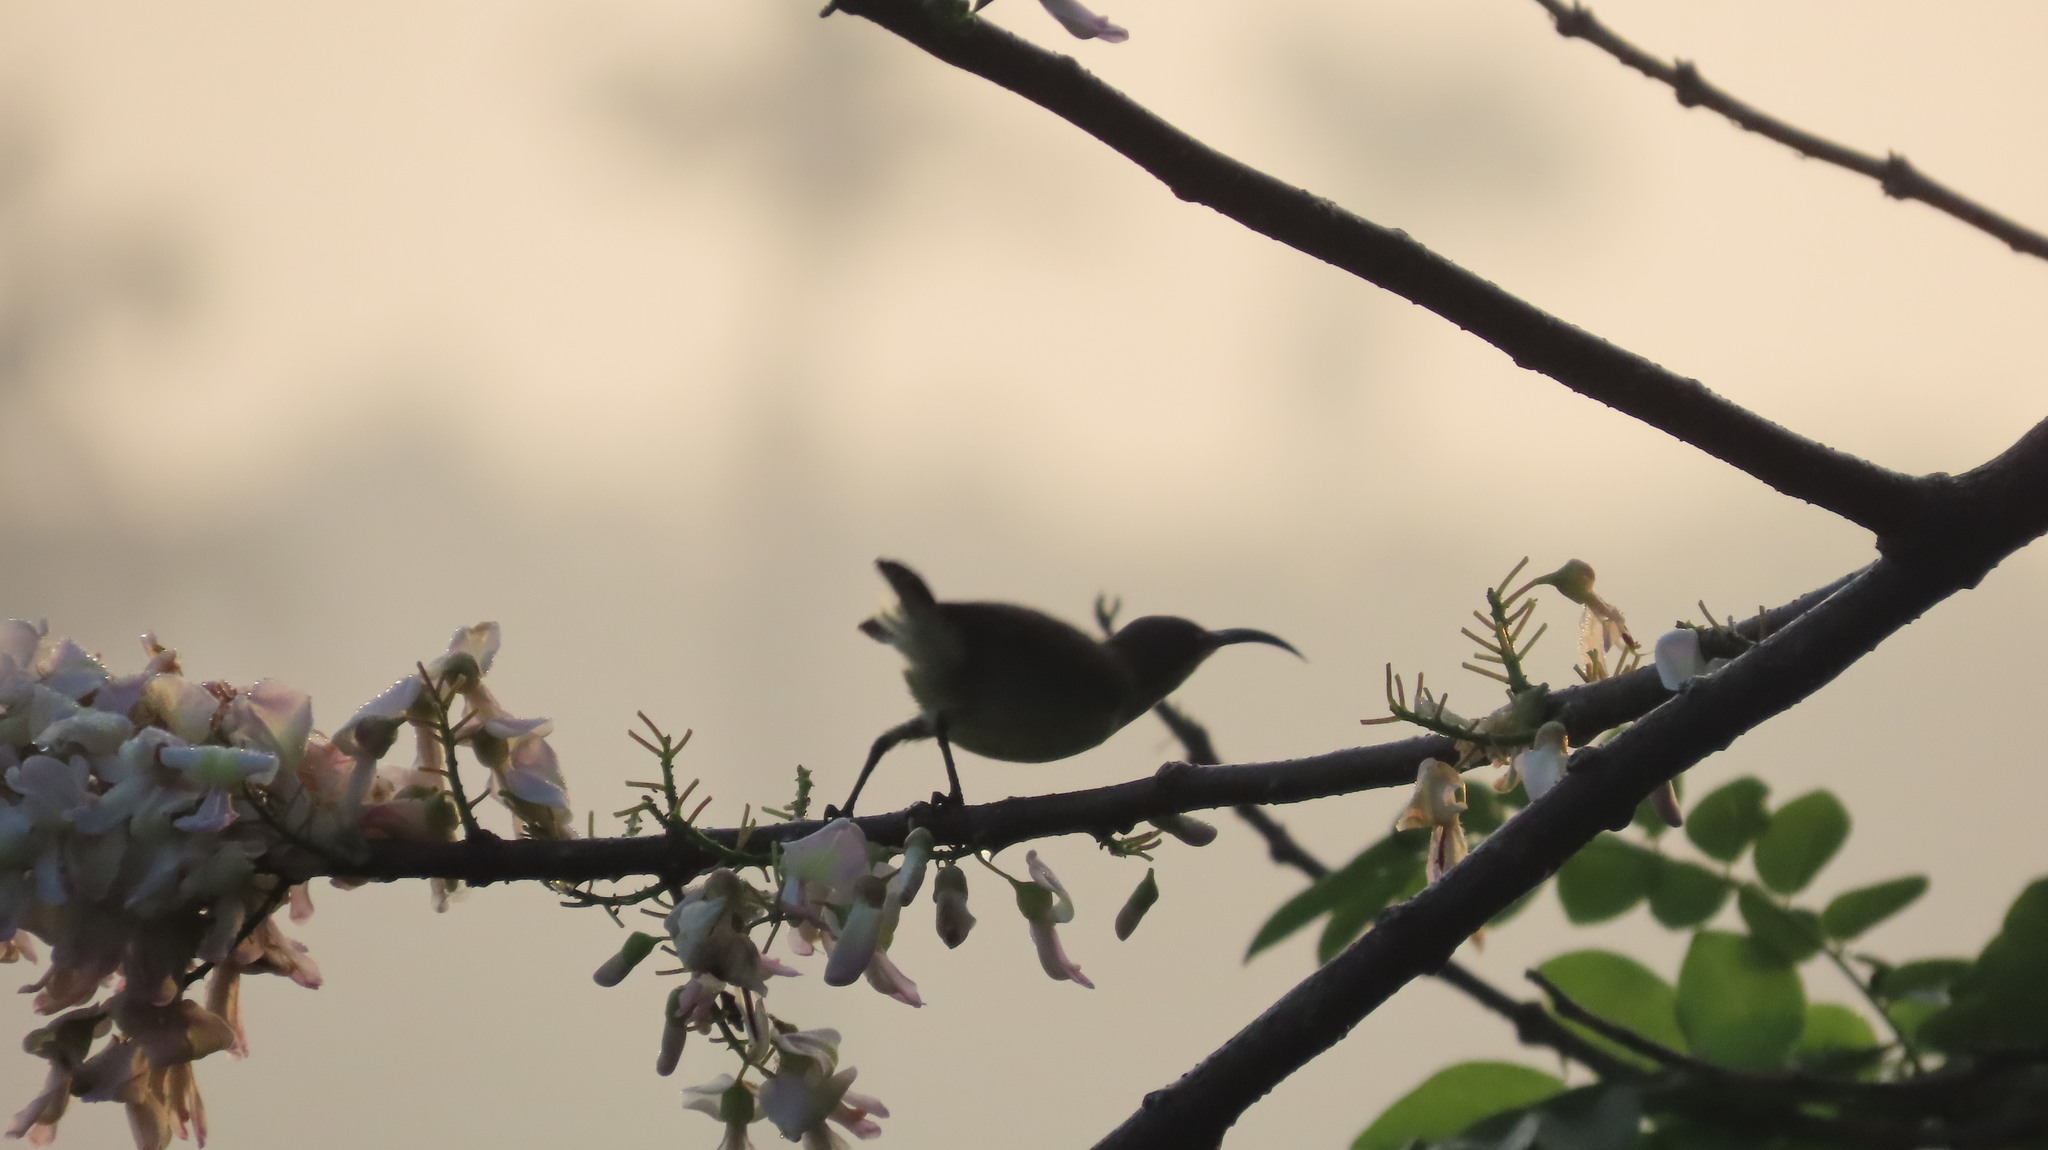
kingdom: Animalia
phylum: Chordata
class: Aves
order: Passeriformes
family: Nectariniidae
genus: Cinnyris
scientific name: Cinnyris lotenius
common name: Loten's sunbird
